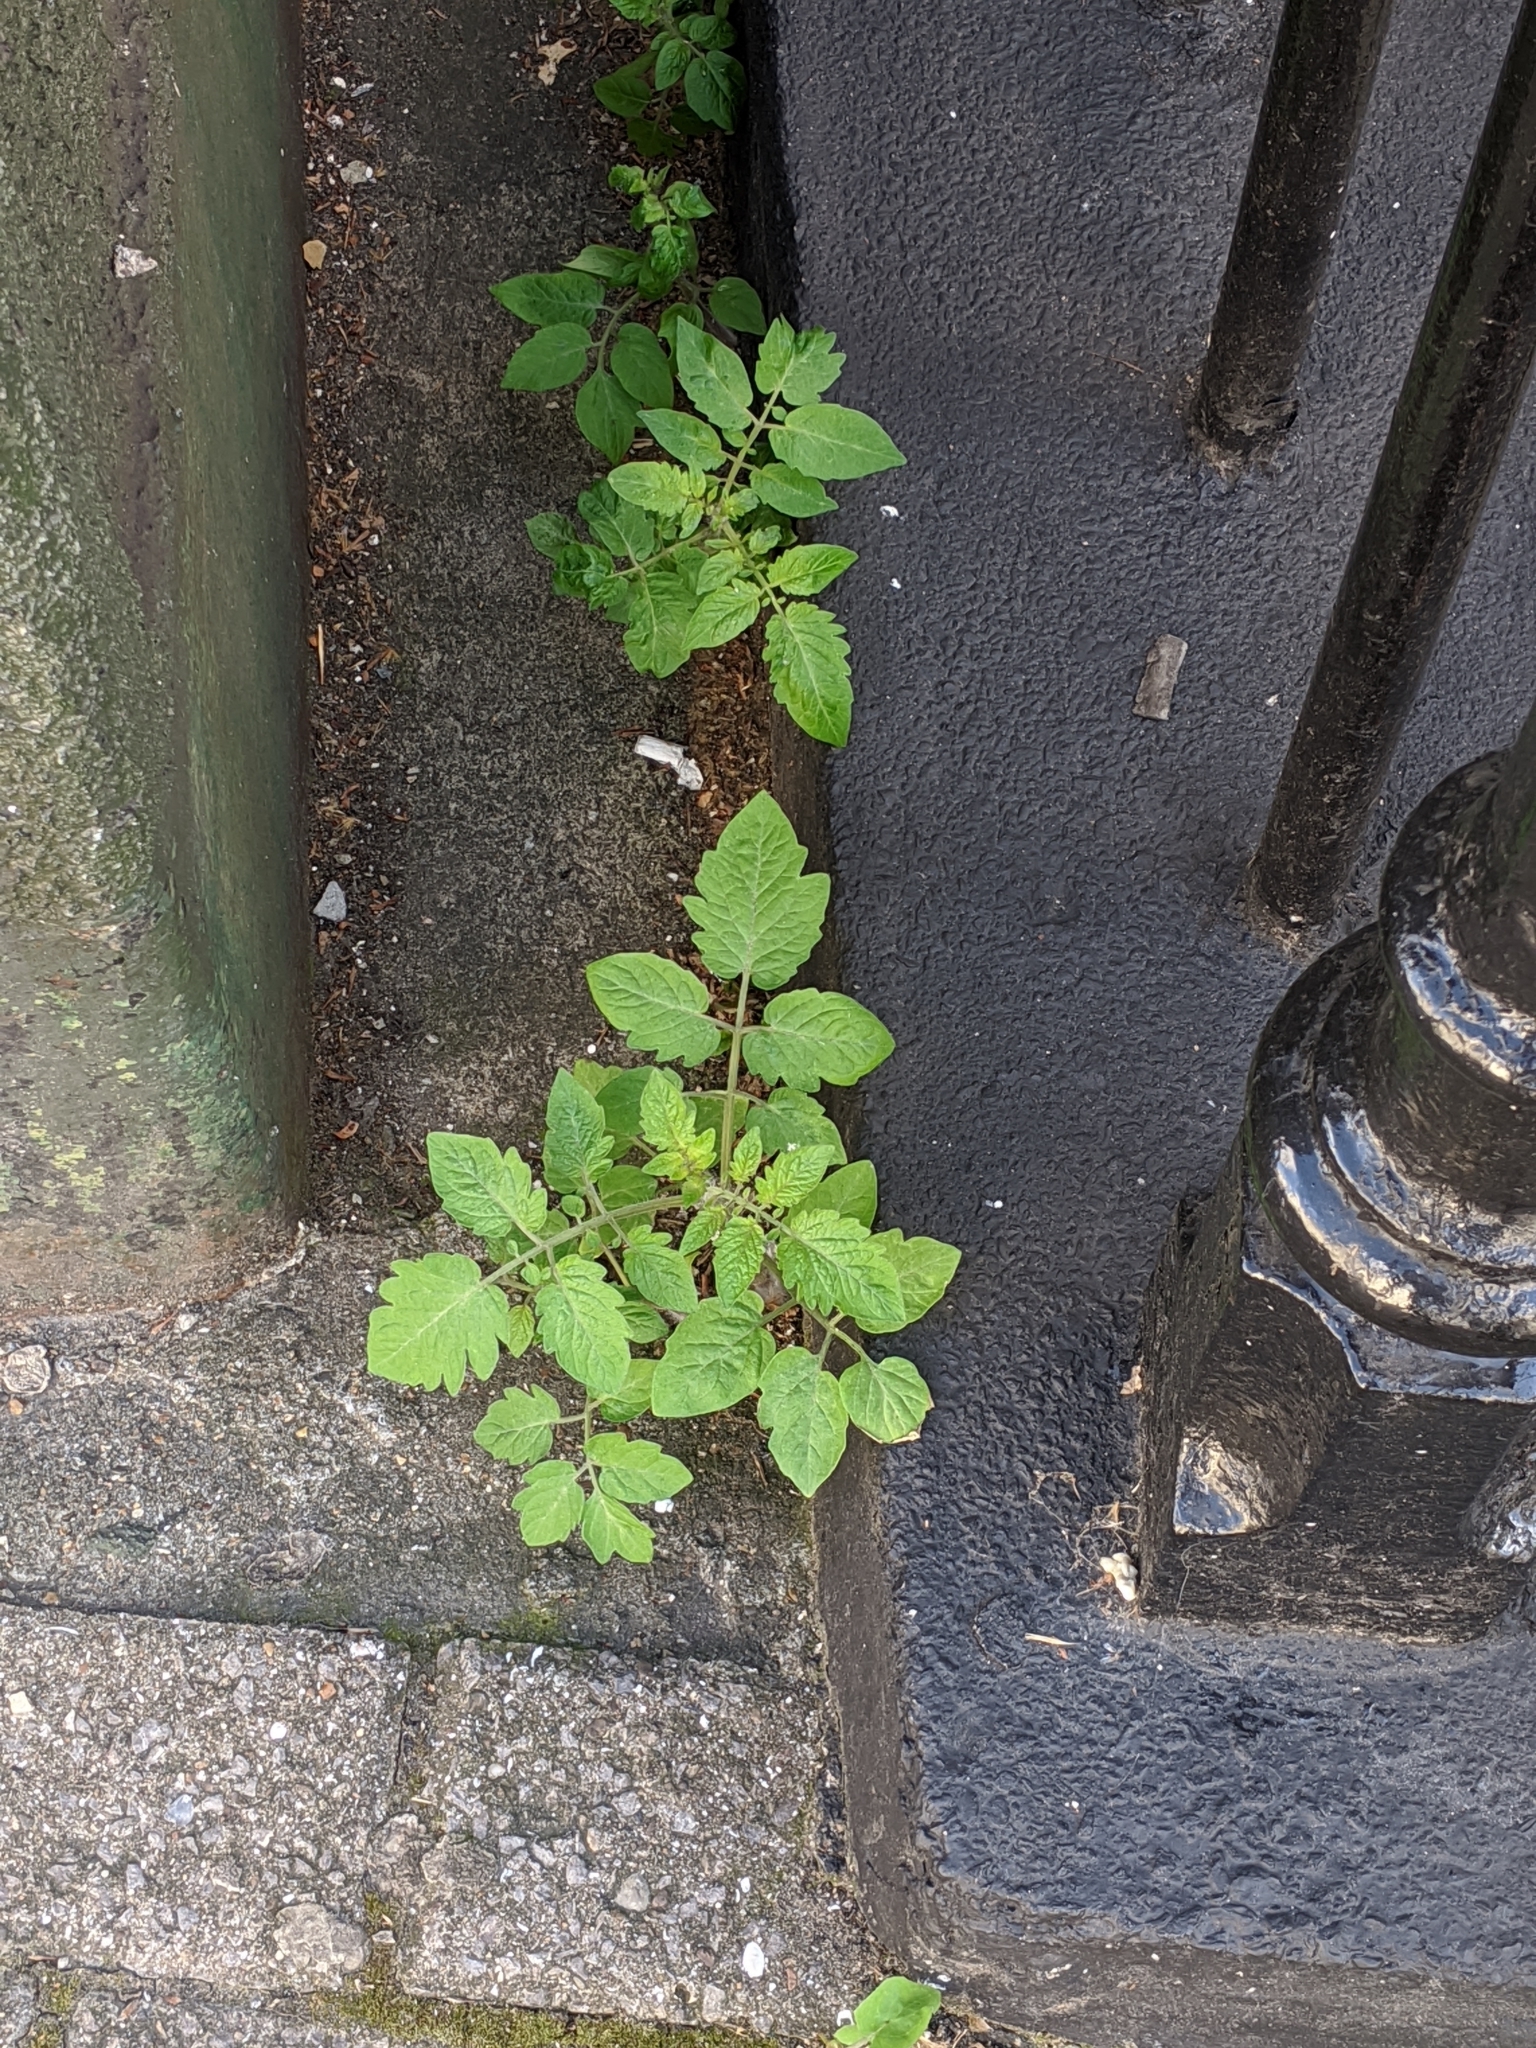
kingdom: Plantae
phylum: Tracheophyta
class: Magnoliopsida
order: Solanales
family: Solanaceae
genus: Solanum
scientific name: Solanum lycopersicum
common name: Garden tomato
